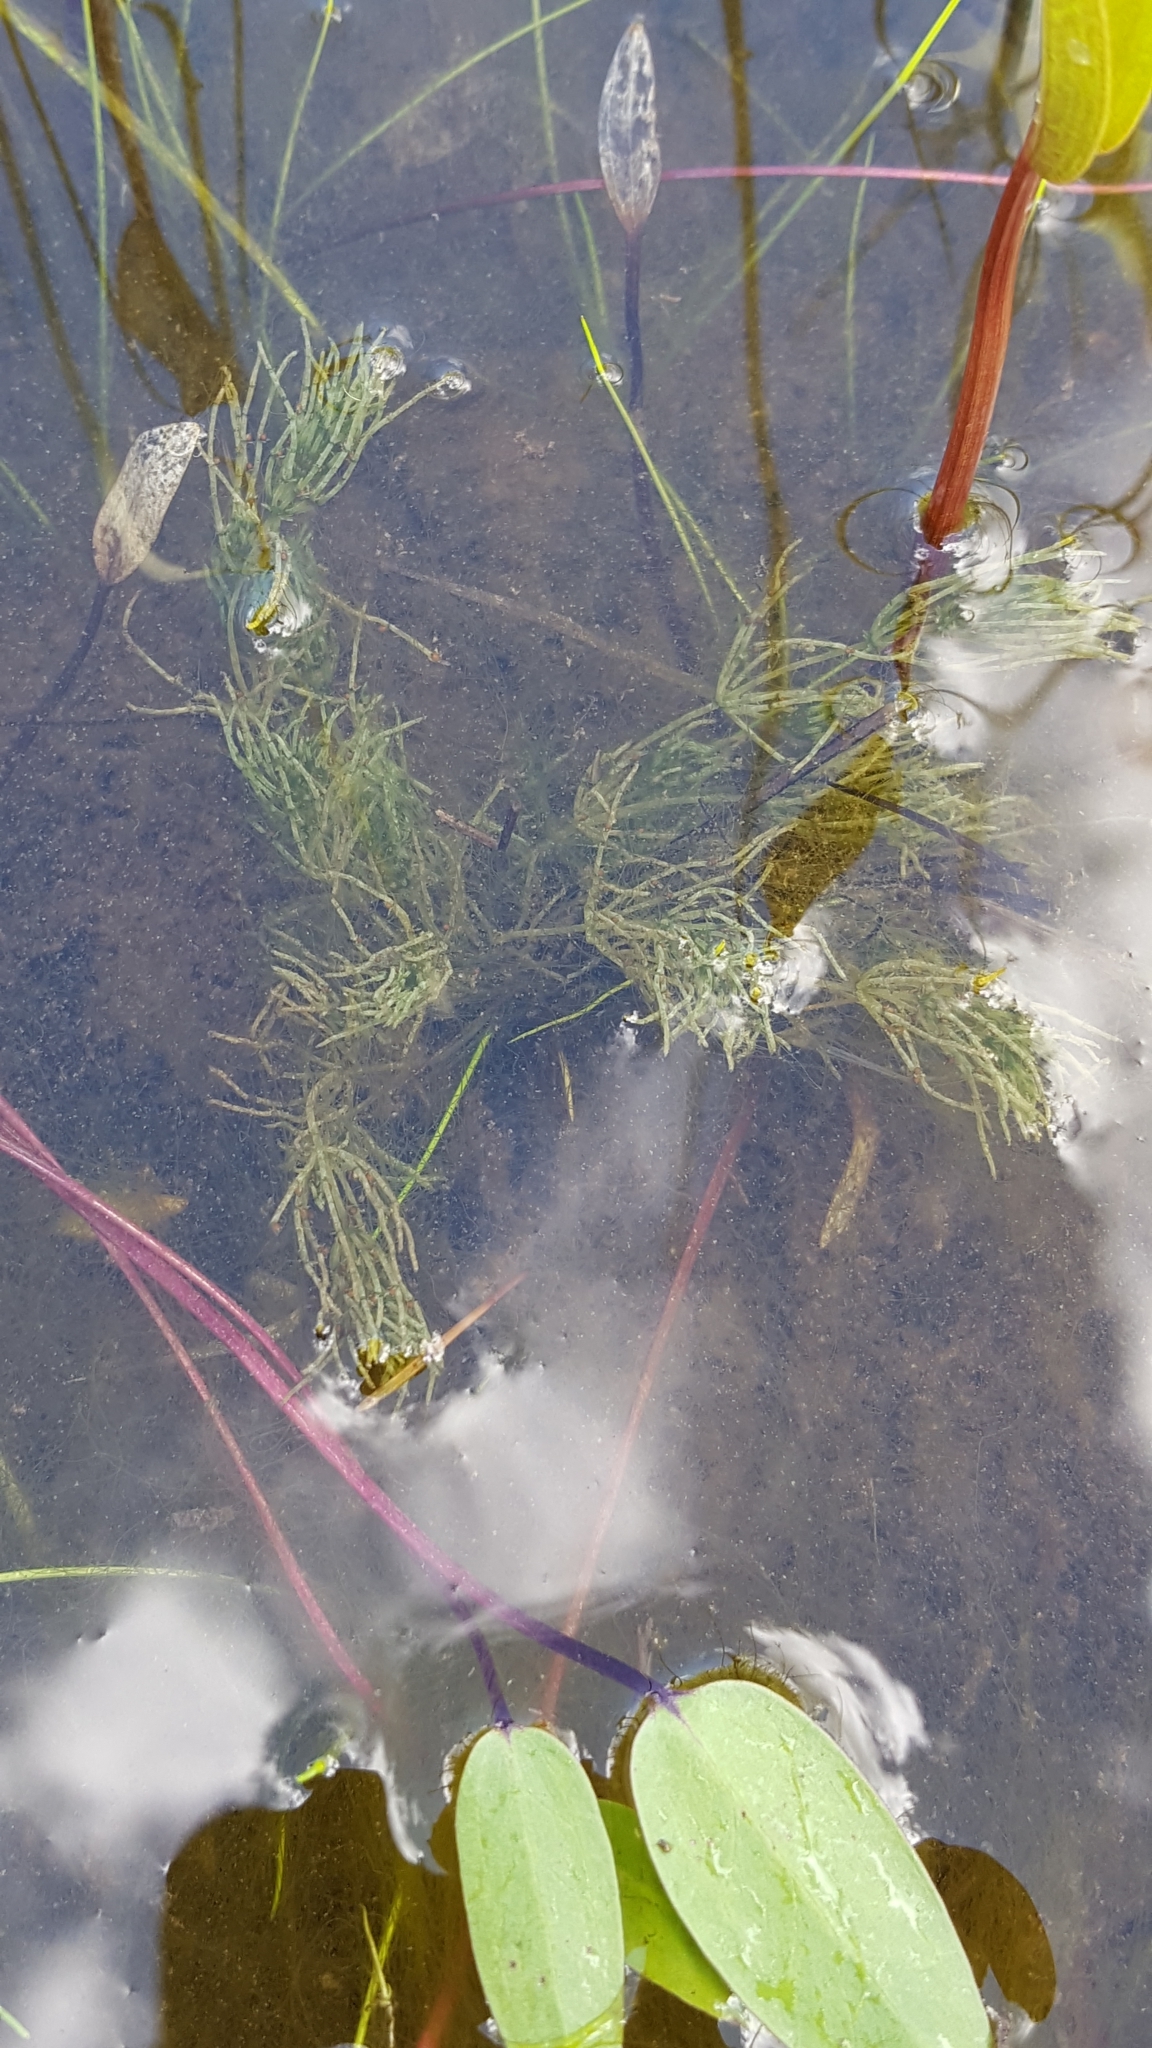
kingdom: Plantae
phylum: Charophyta
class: Charophyceae
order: Charales
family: Characeae
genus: Chara
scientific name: Chara braunii
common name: Braun's stonewort
